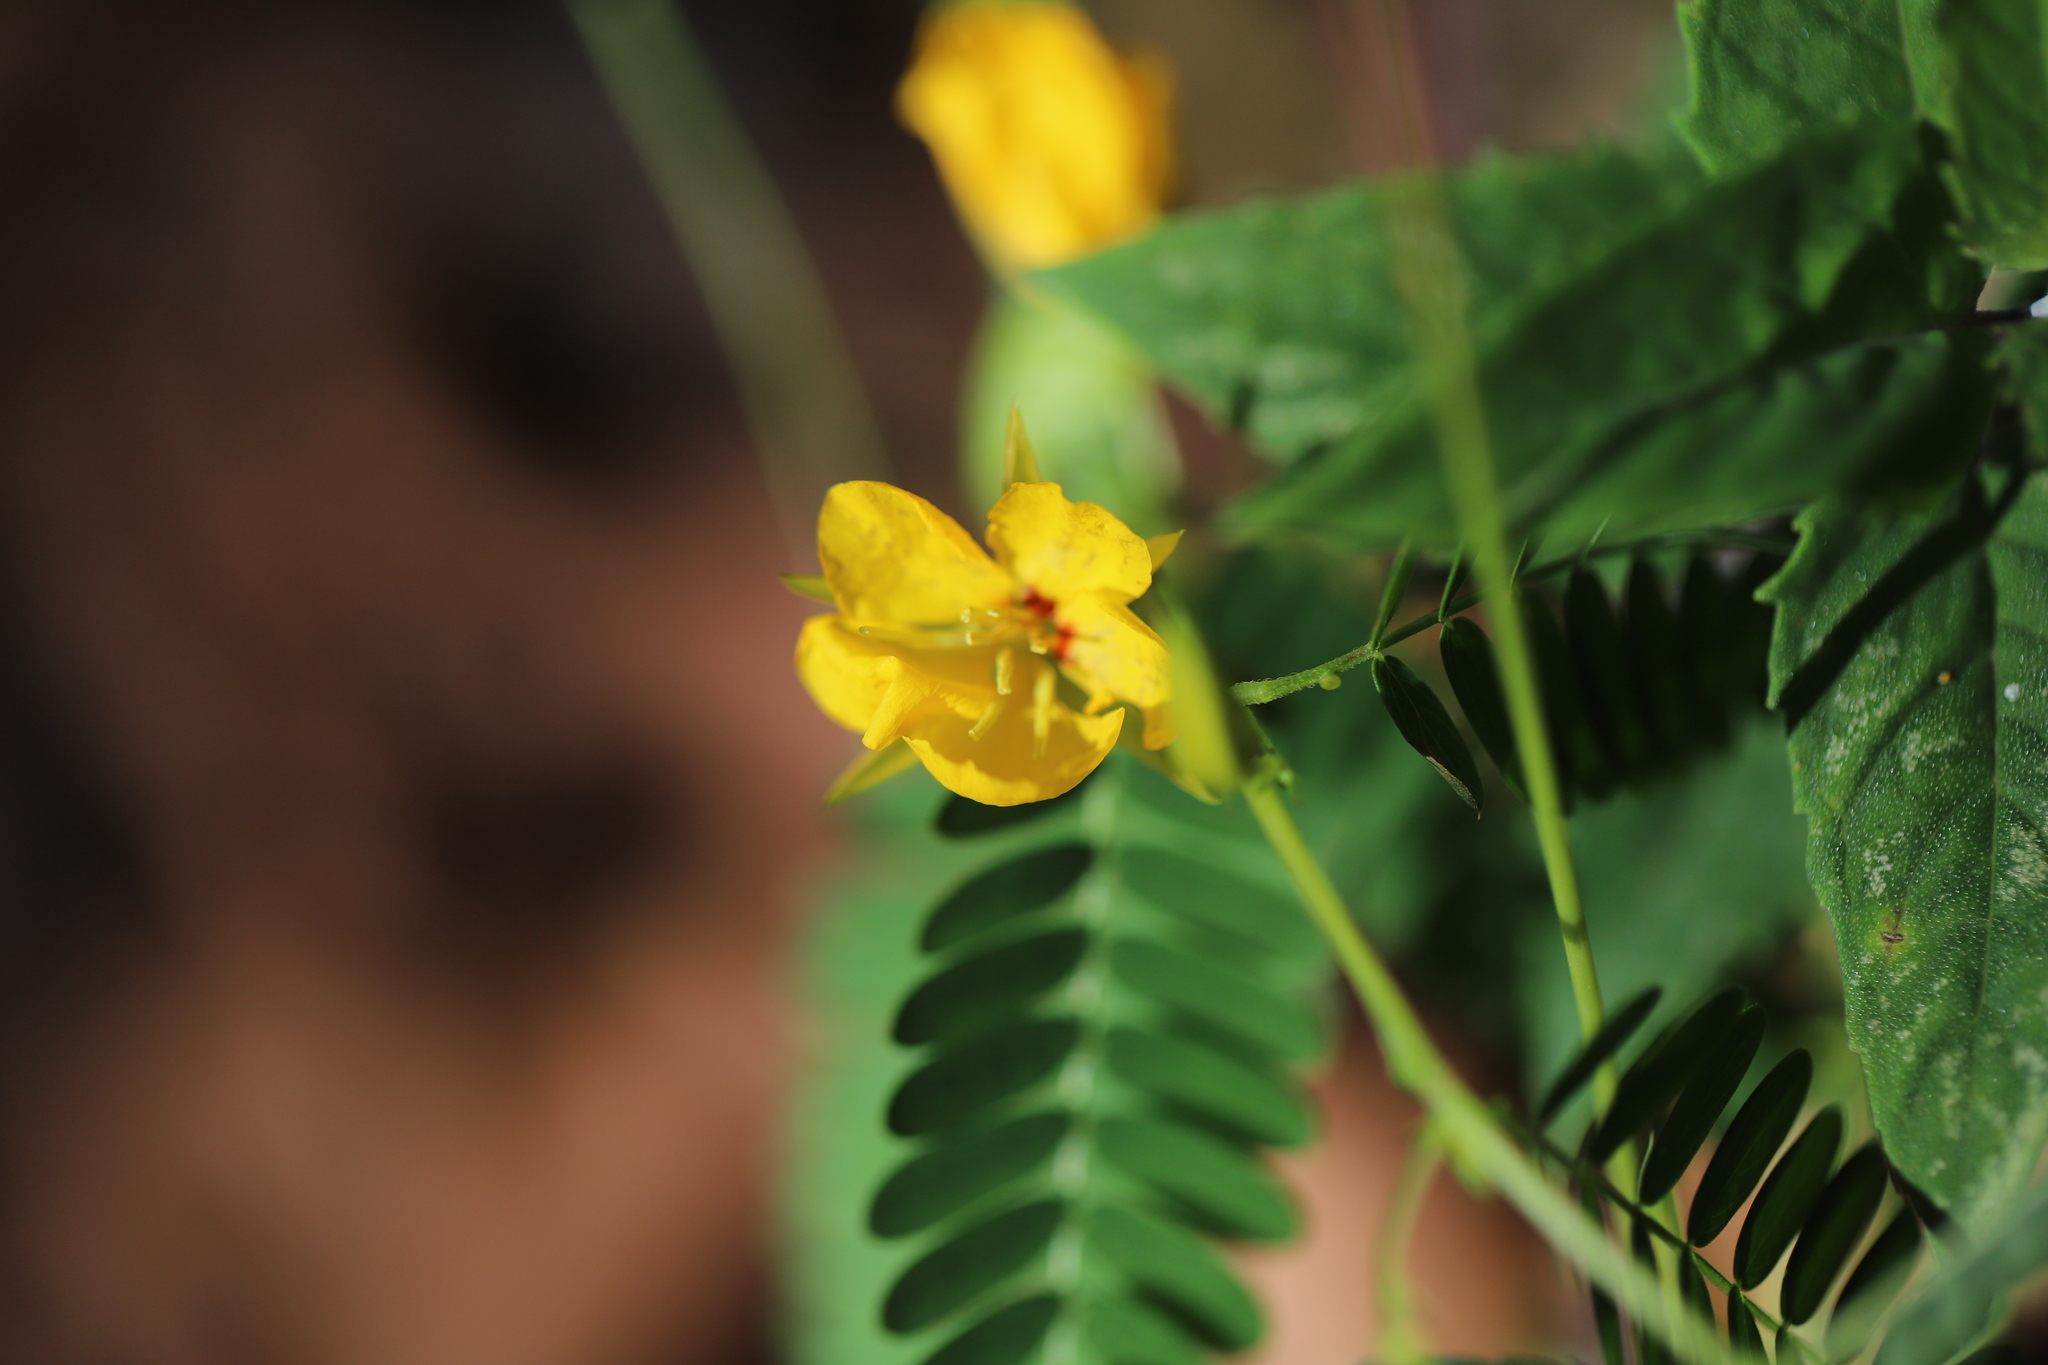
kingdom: Plantae
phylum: Tracheophyta
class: Magnoliopsida
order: Fabales
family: Fabaceae
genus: Chamaecrista
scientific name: Chamaecrista fasciculata
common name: Golden cassia
